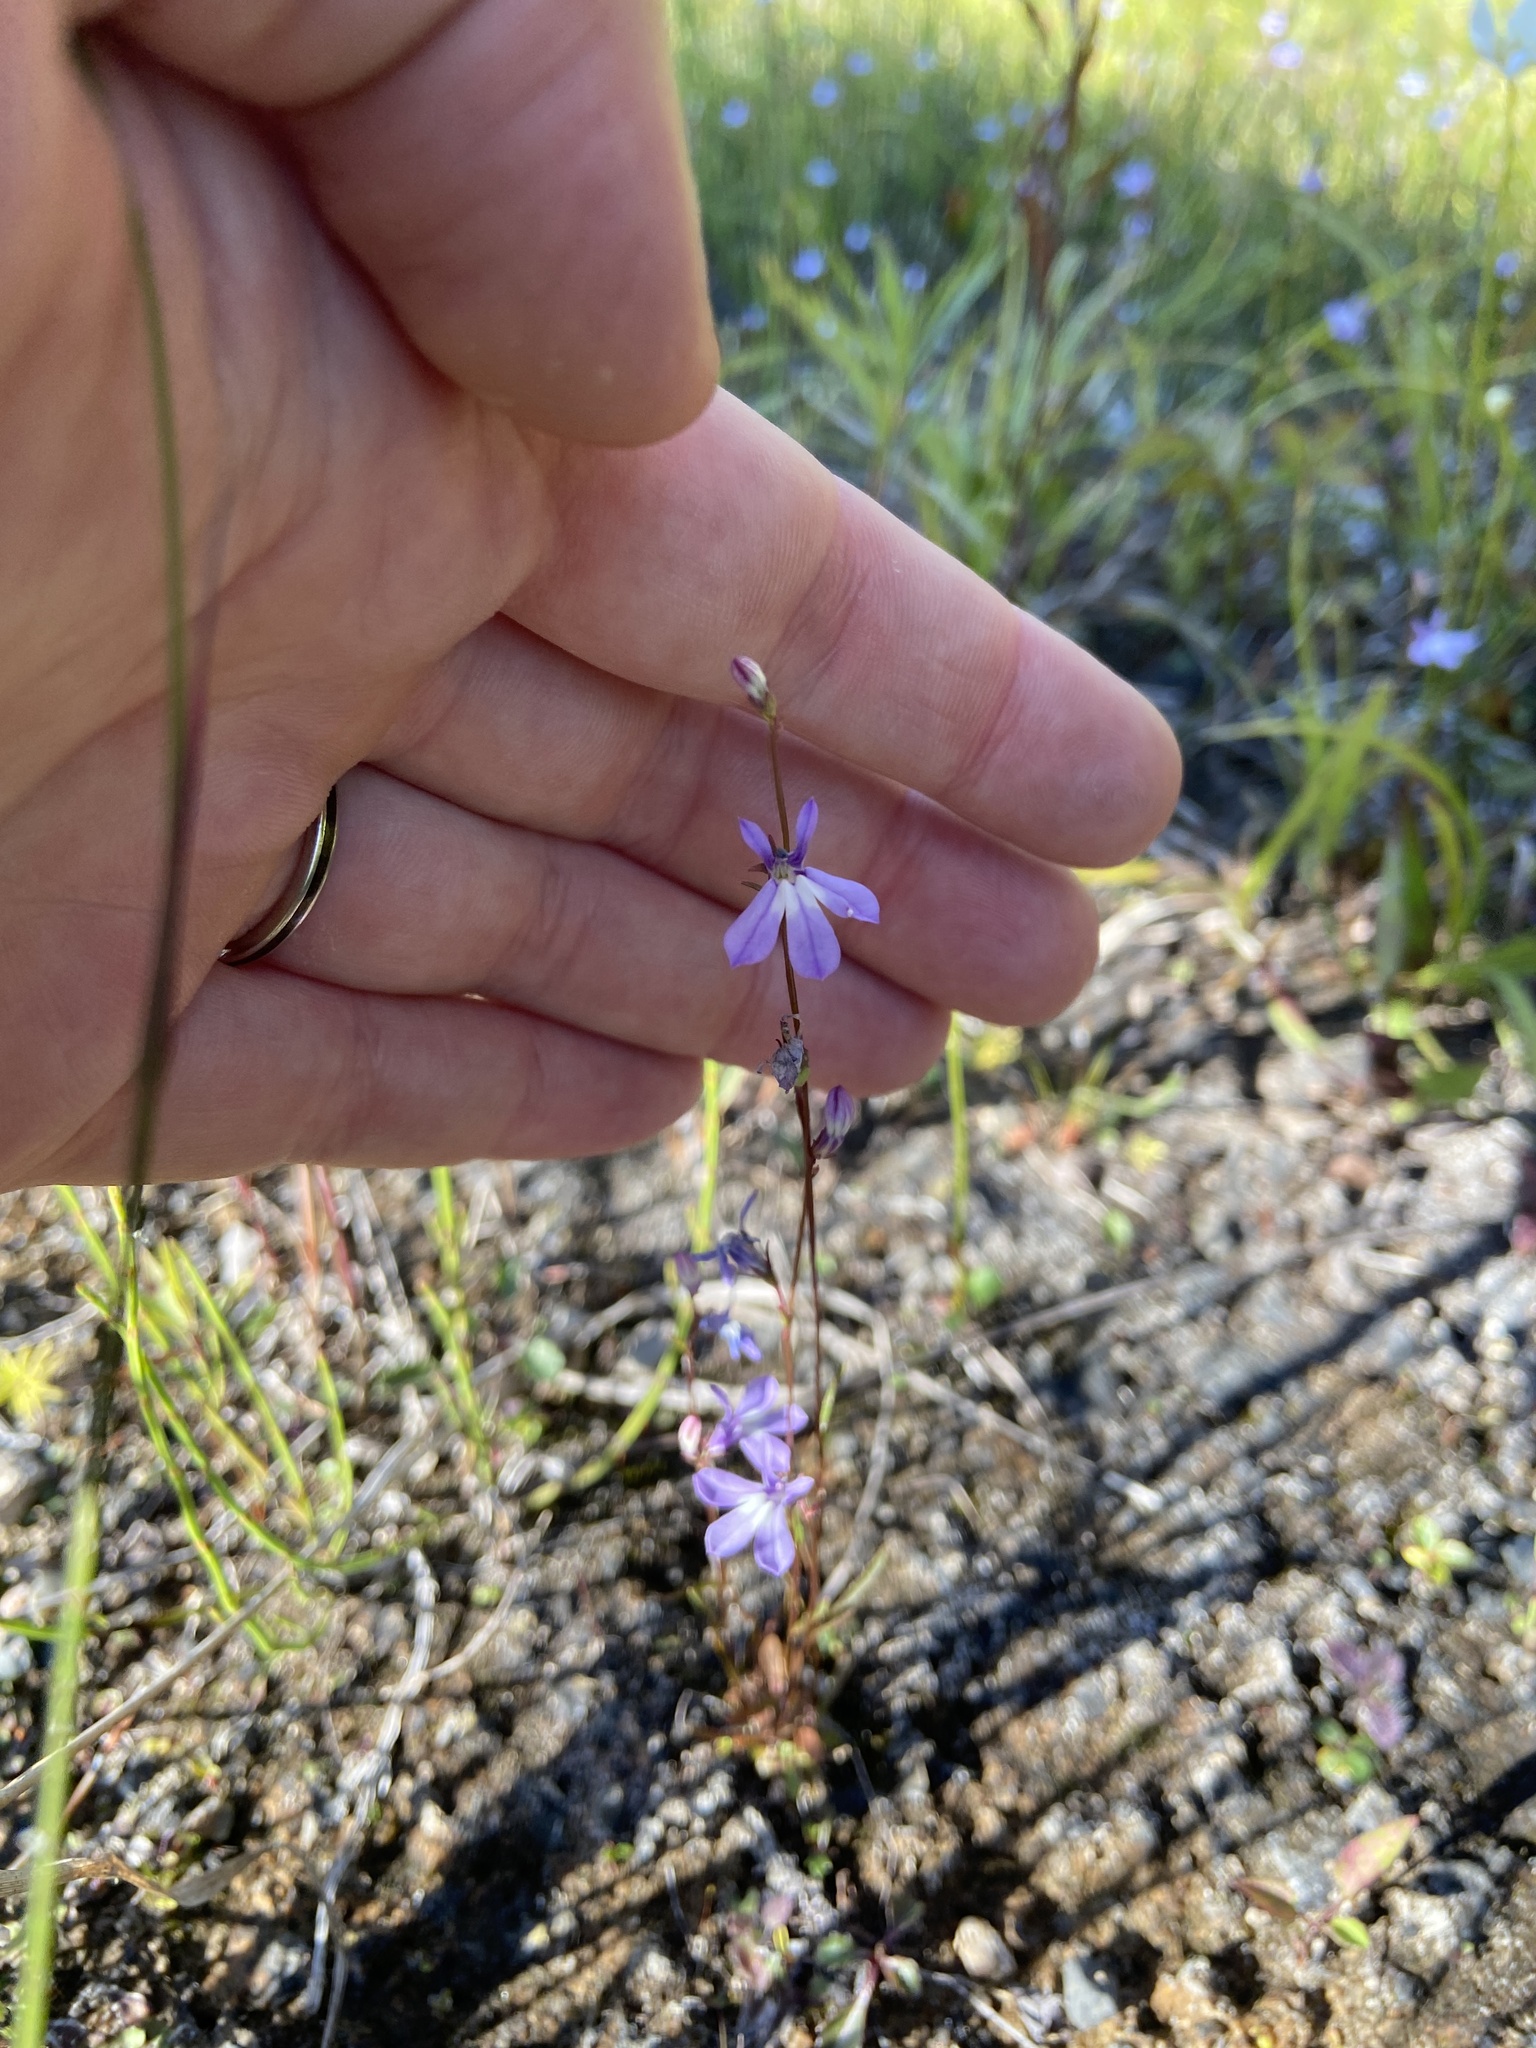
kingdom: Plantae
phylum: Tracheophyta
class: Magnoliopsida
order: Asterales
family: Campanulaceae
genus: Lobelia
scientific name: Lobelia kalmii
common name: Kalm's lobelia
